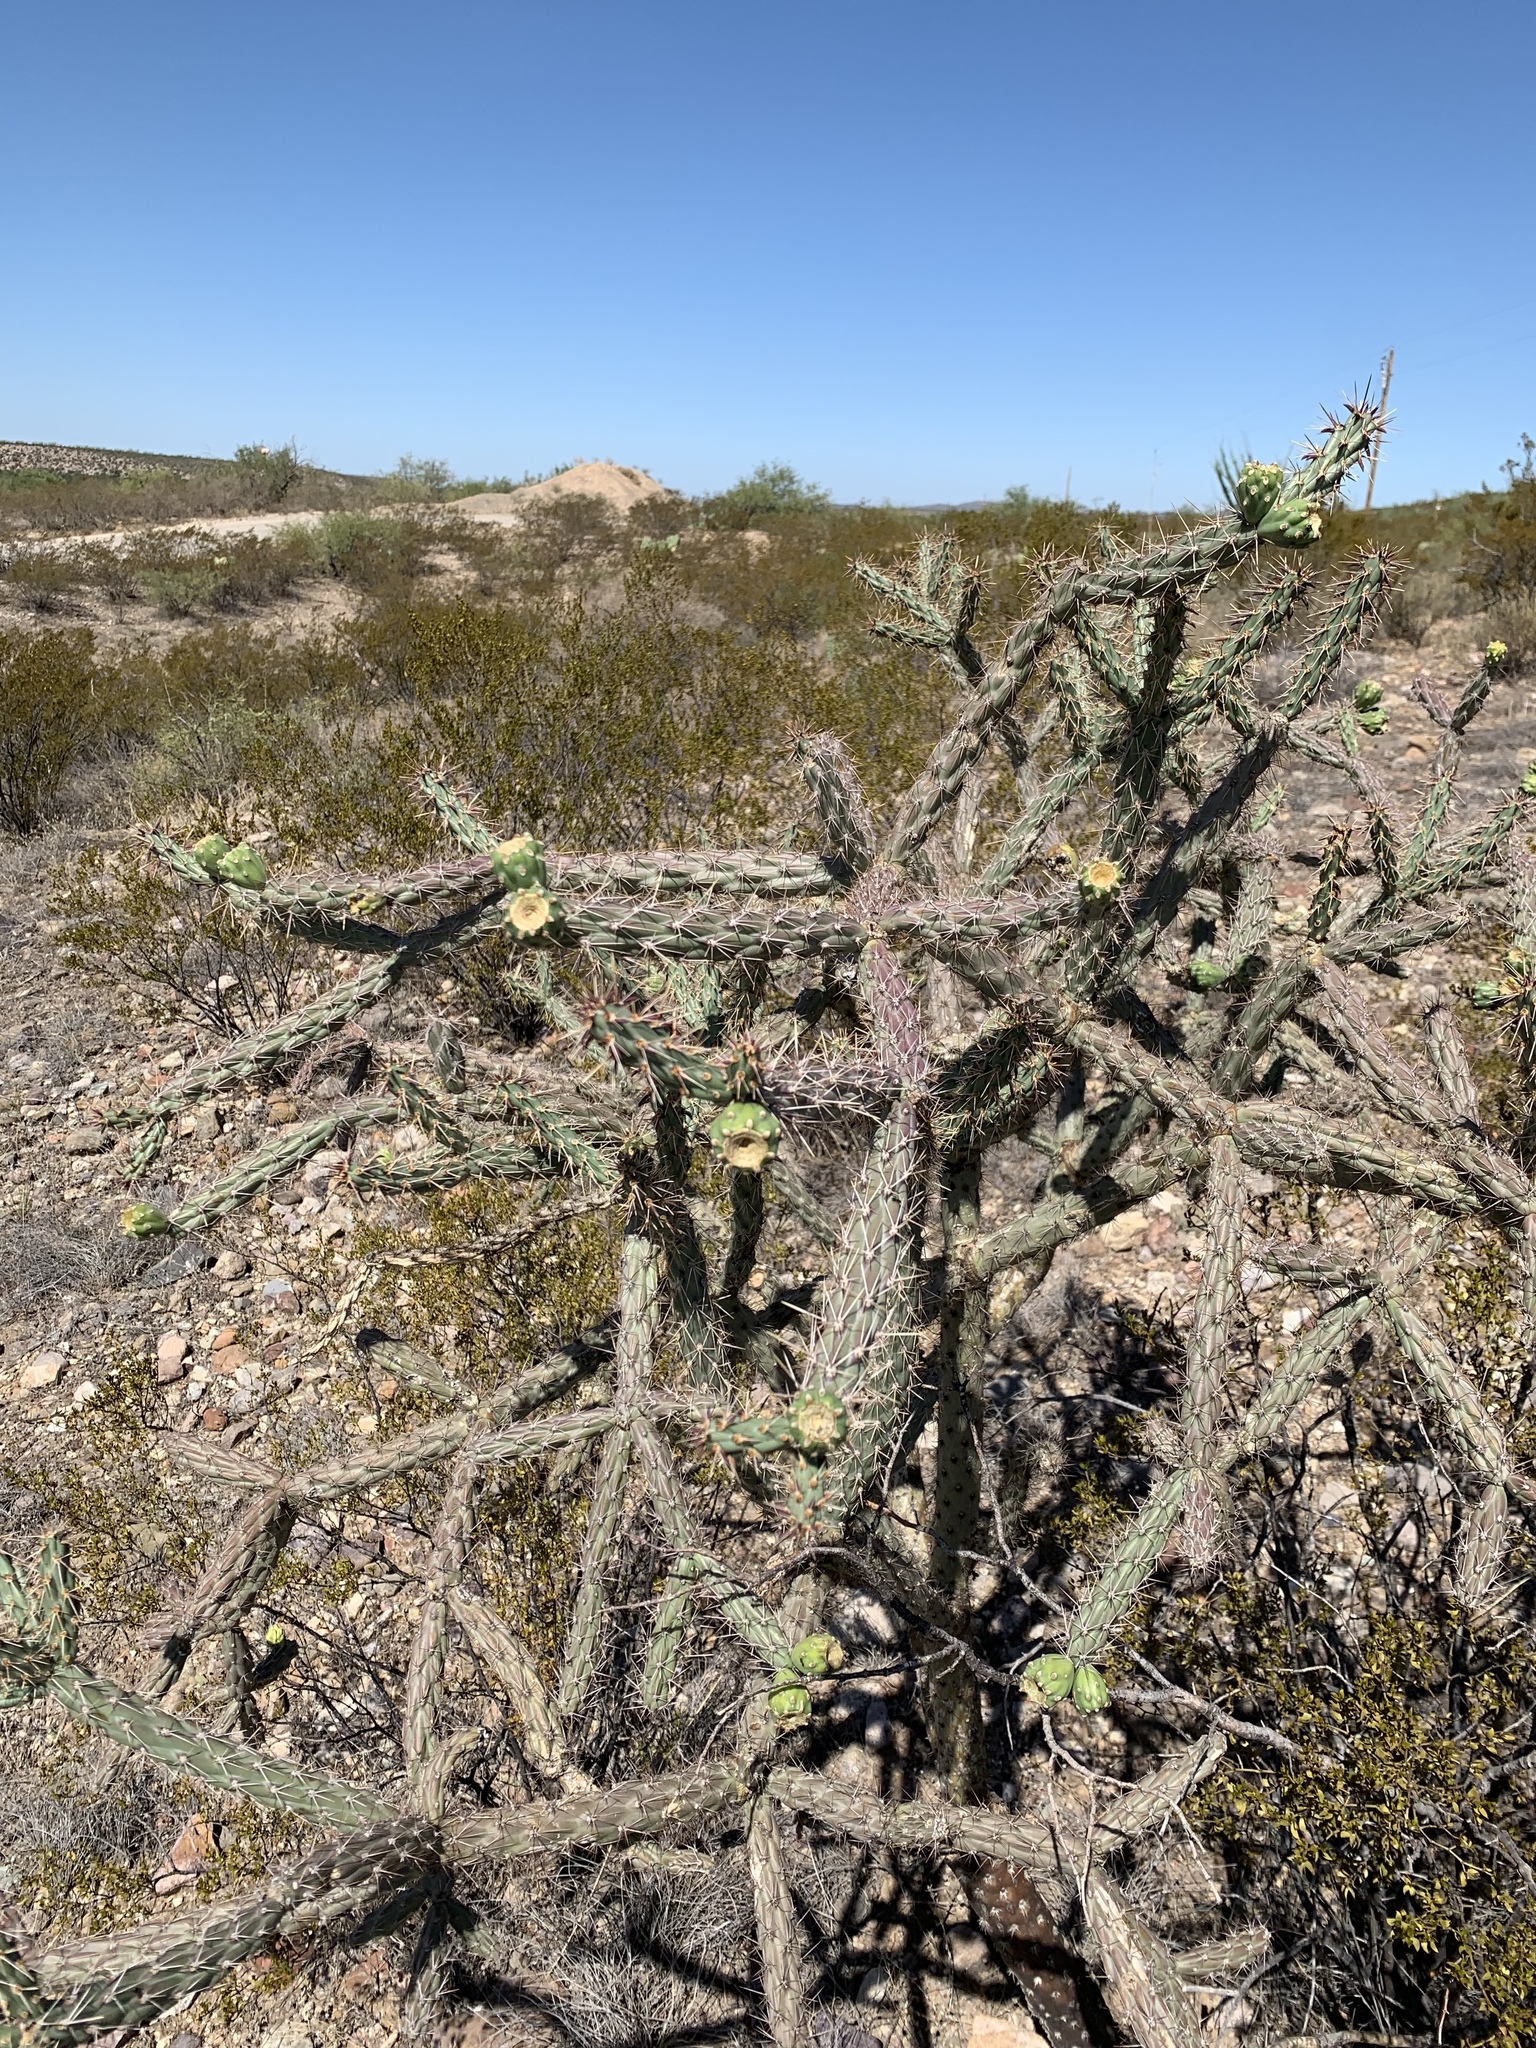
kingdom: Plantae
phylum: Tracheophyta
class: Magnoliopsida
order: Caryophyllales
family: Cactaceae
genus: Cylindropuntia
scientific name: Cylindropuntia thurberi
